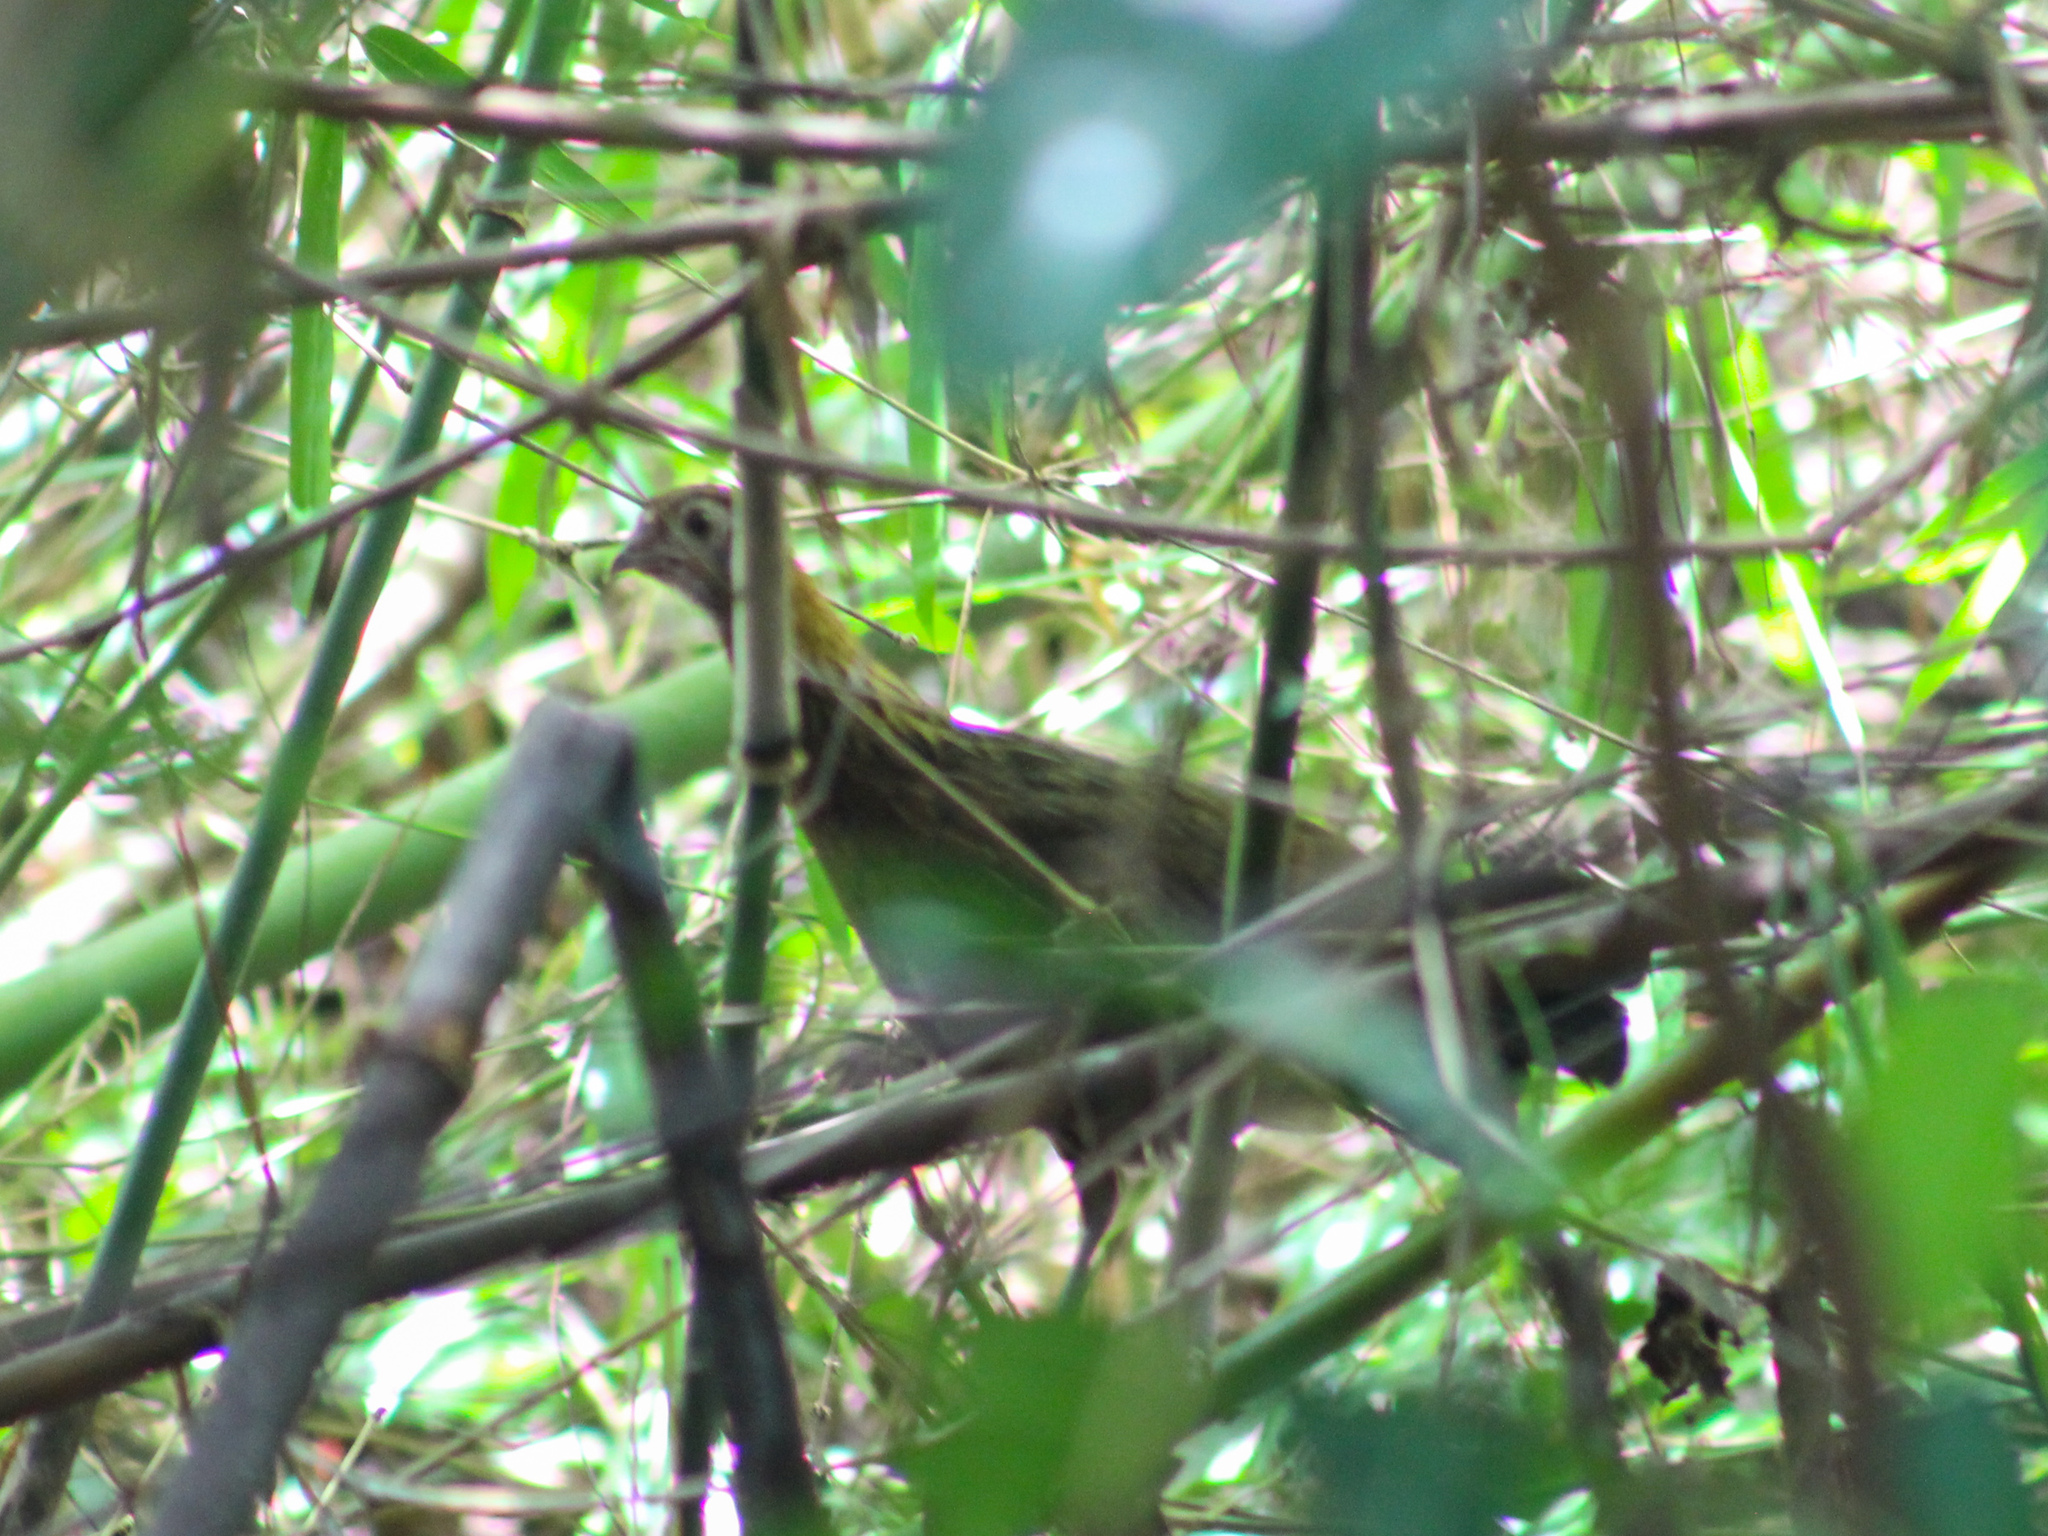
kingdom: Animalia
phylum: Chordata
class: Aves
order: Galliformes
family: Phasianidae
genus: Gallus
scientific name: Gallus gallus
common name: Red junglefowl
